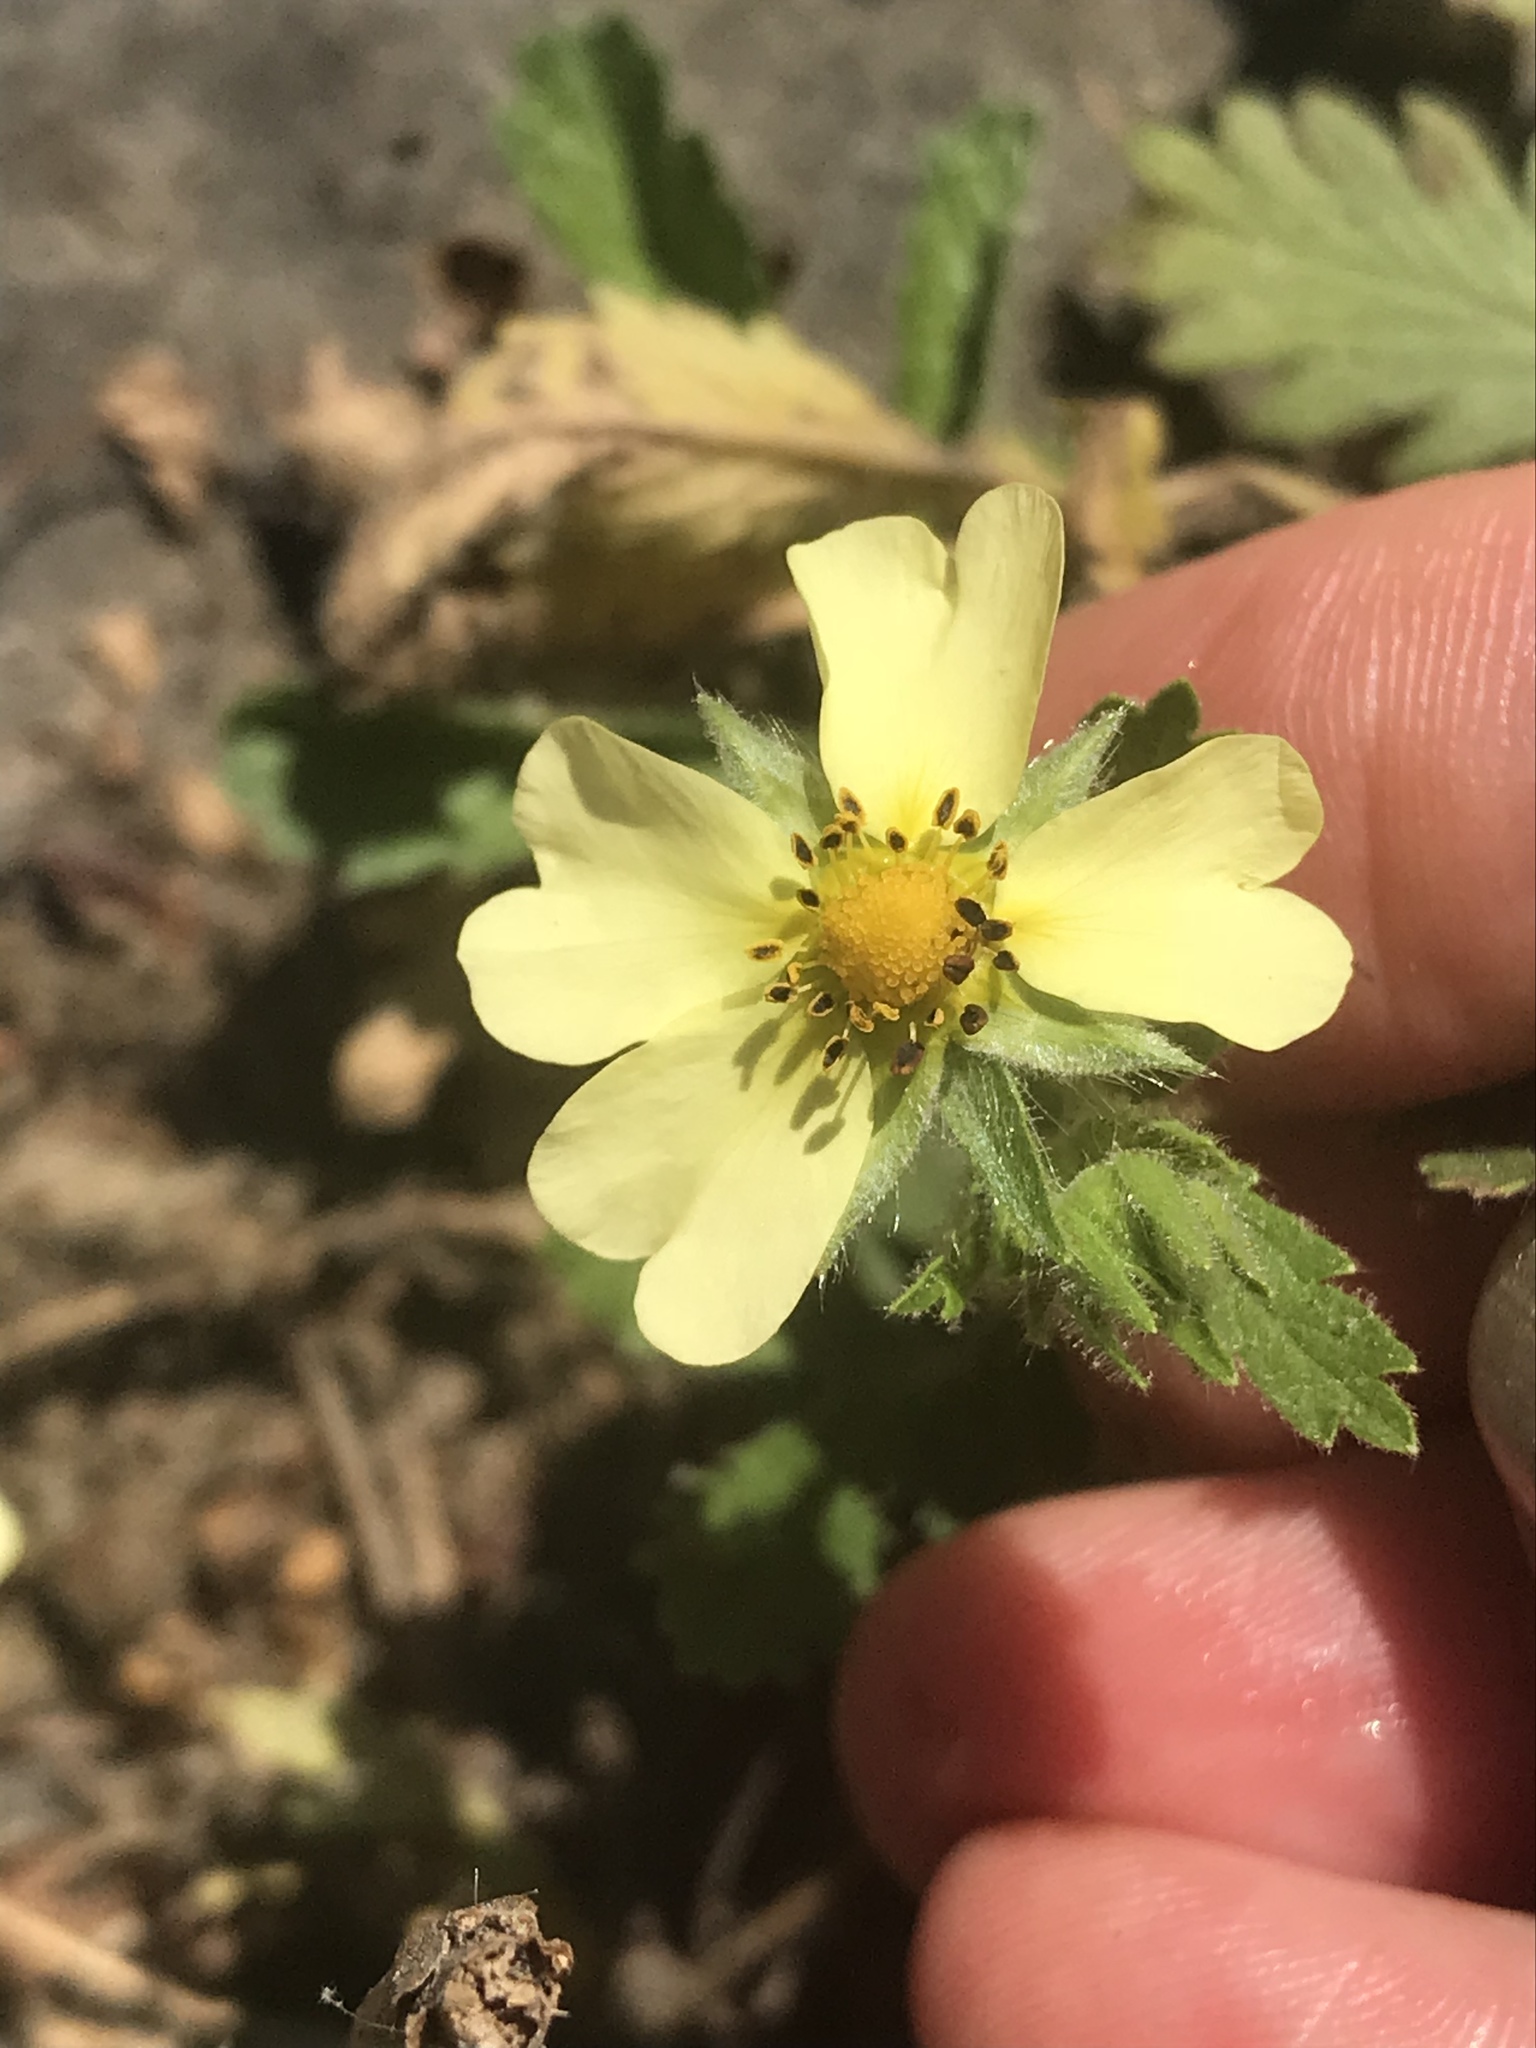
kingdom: Plantae
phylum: Tracheophyta
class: Magnoliopsida
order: Rosales
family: Rosaceae
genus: Potentilla
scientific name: Potentilla recta
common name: Sulphur cinquefoil
